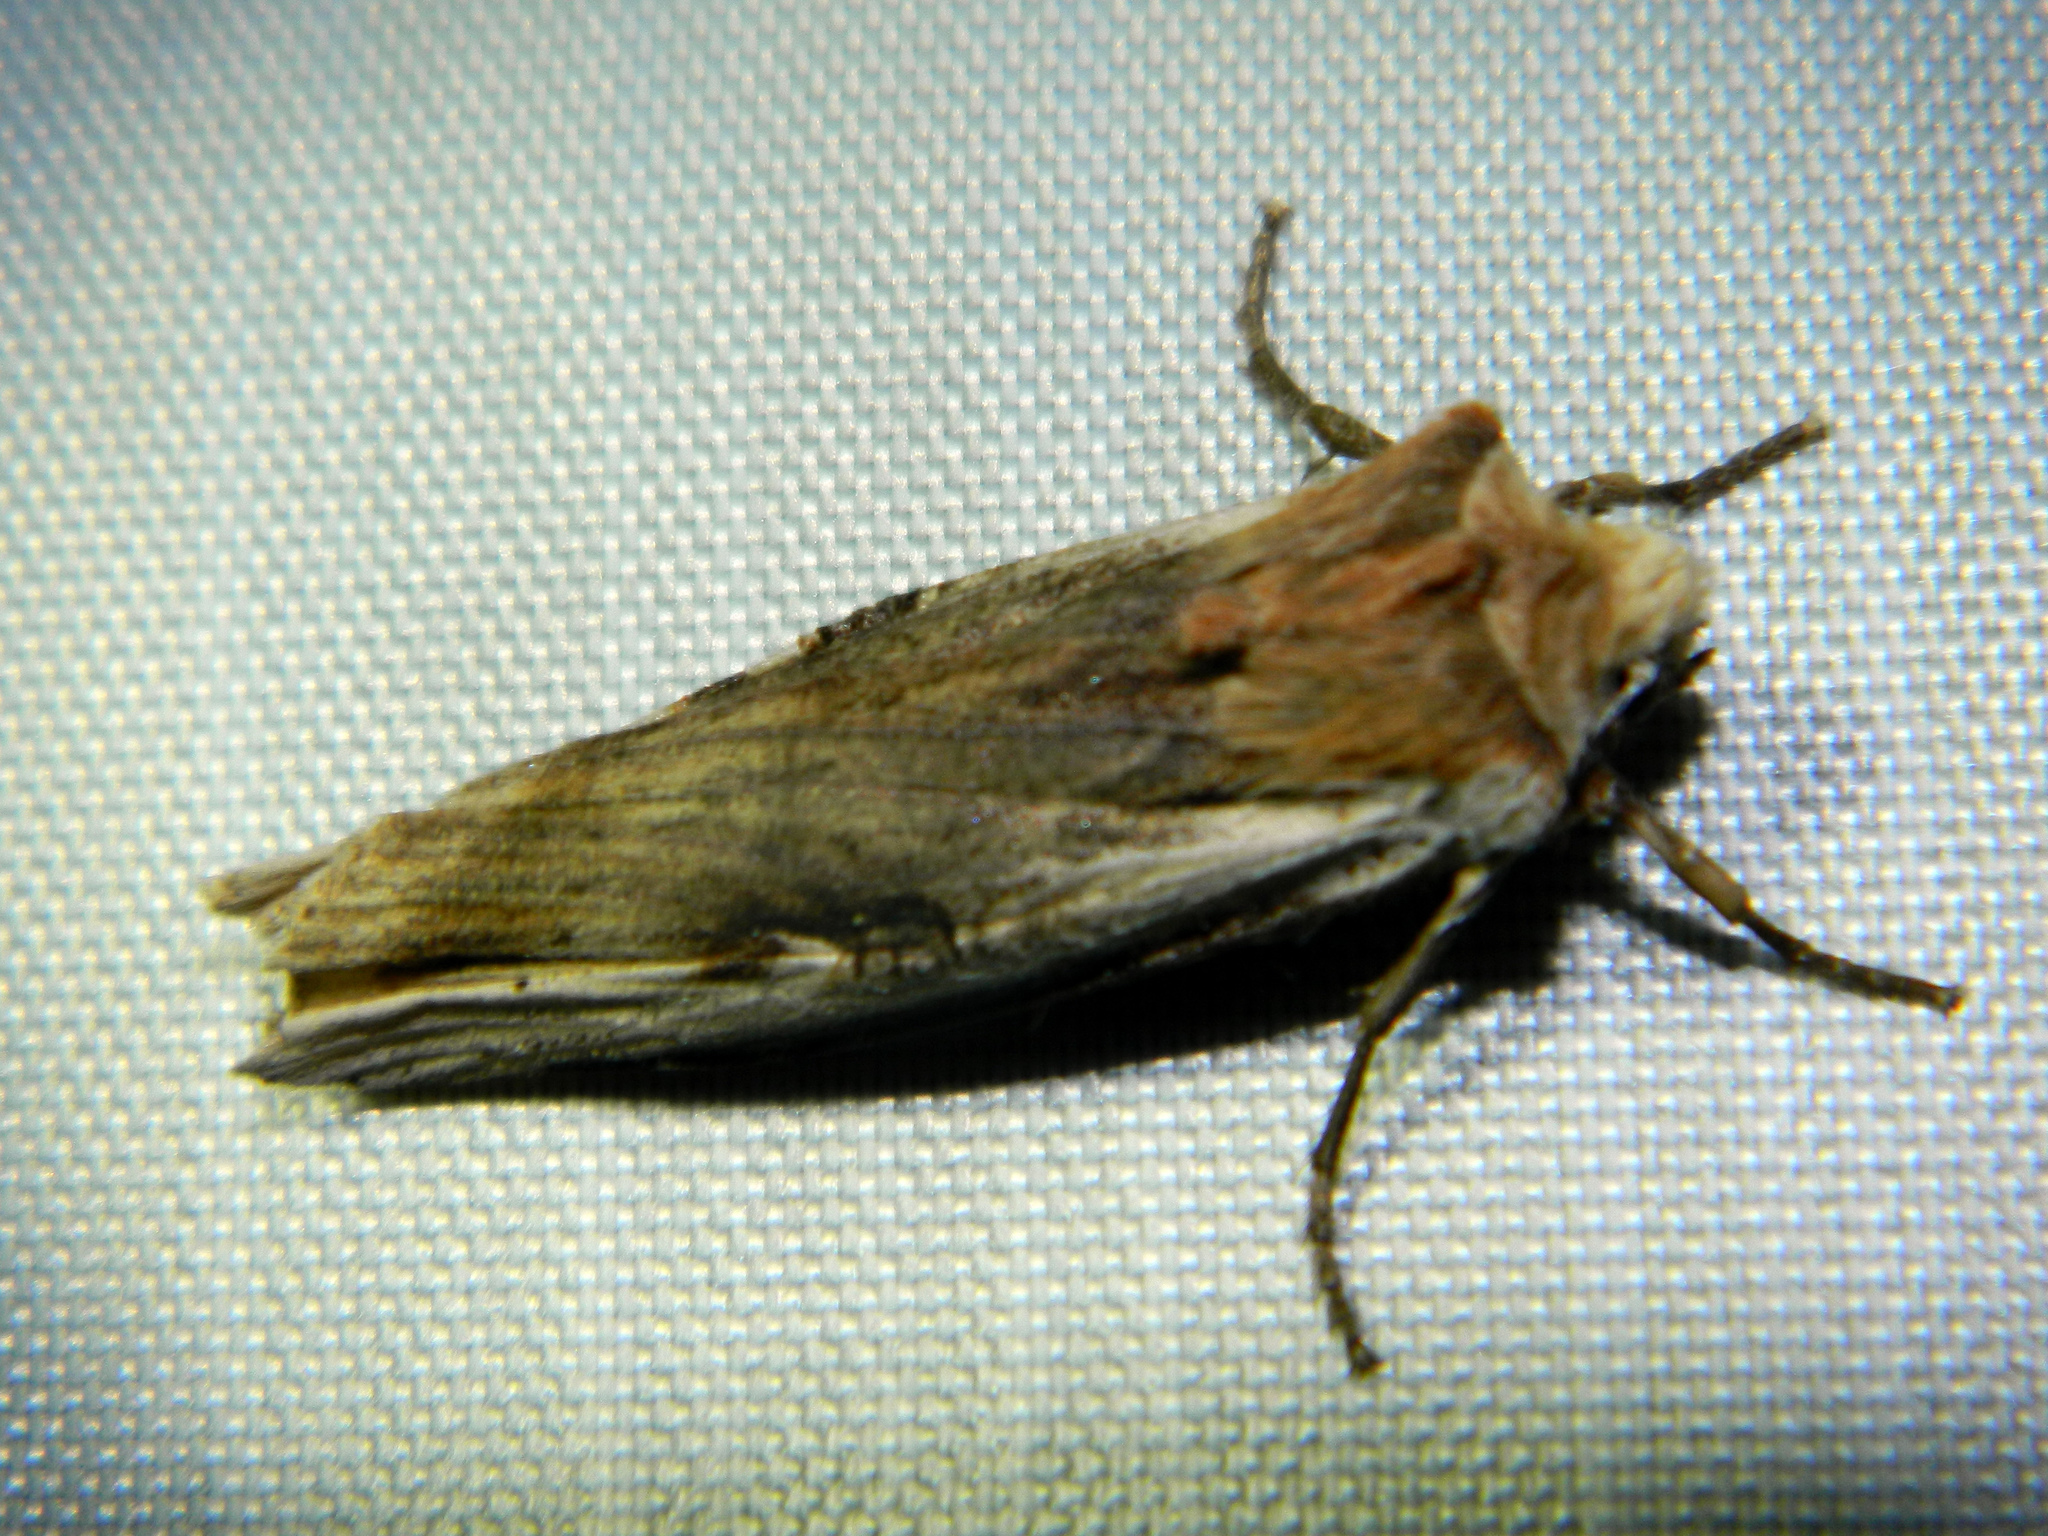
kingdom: Animalia
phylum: Arthropoda
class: Insecta
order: Lepidoptera
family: Noctuidae
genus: Xylena
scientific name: Xylena curvimacula
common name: Dot-and-dash swordgrass moth
